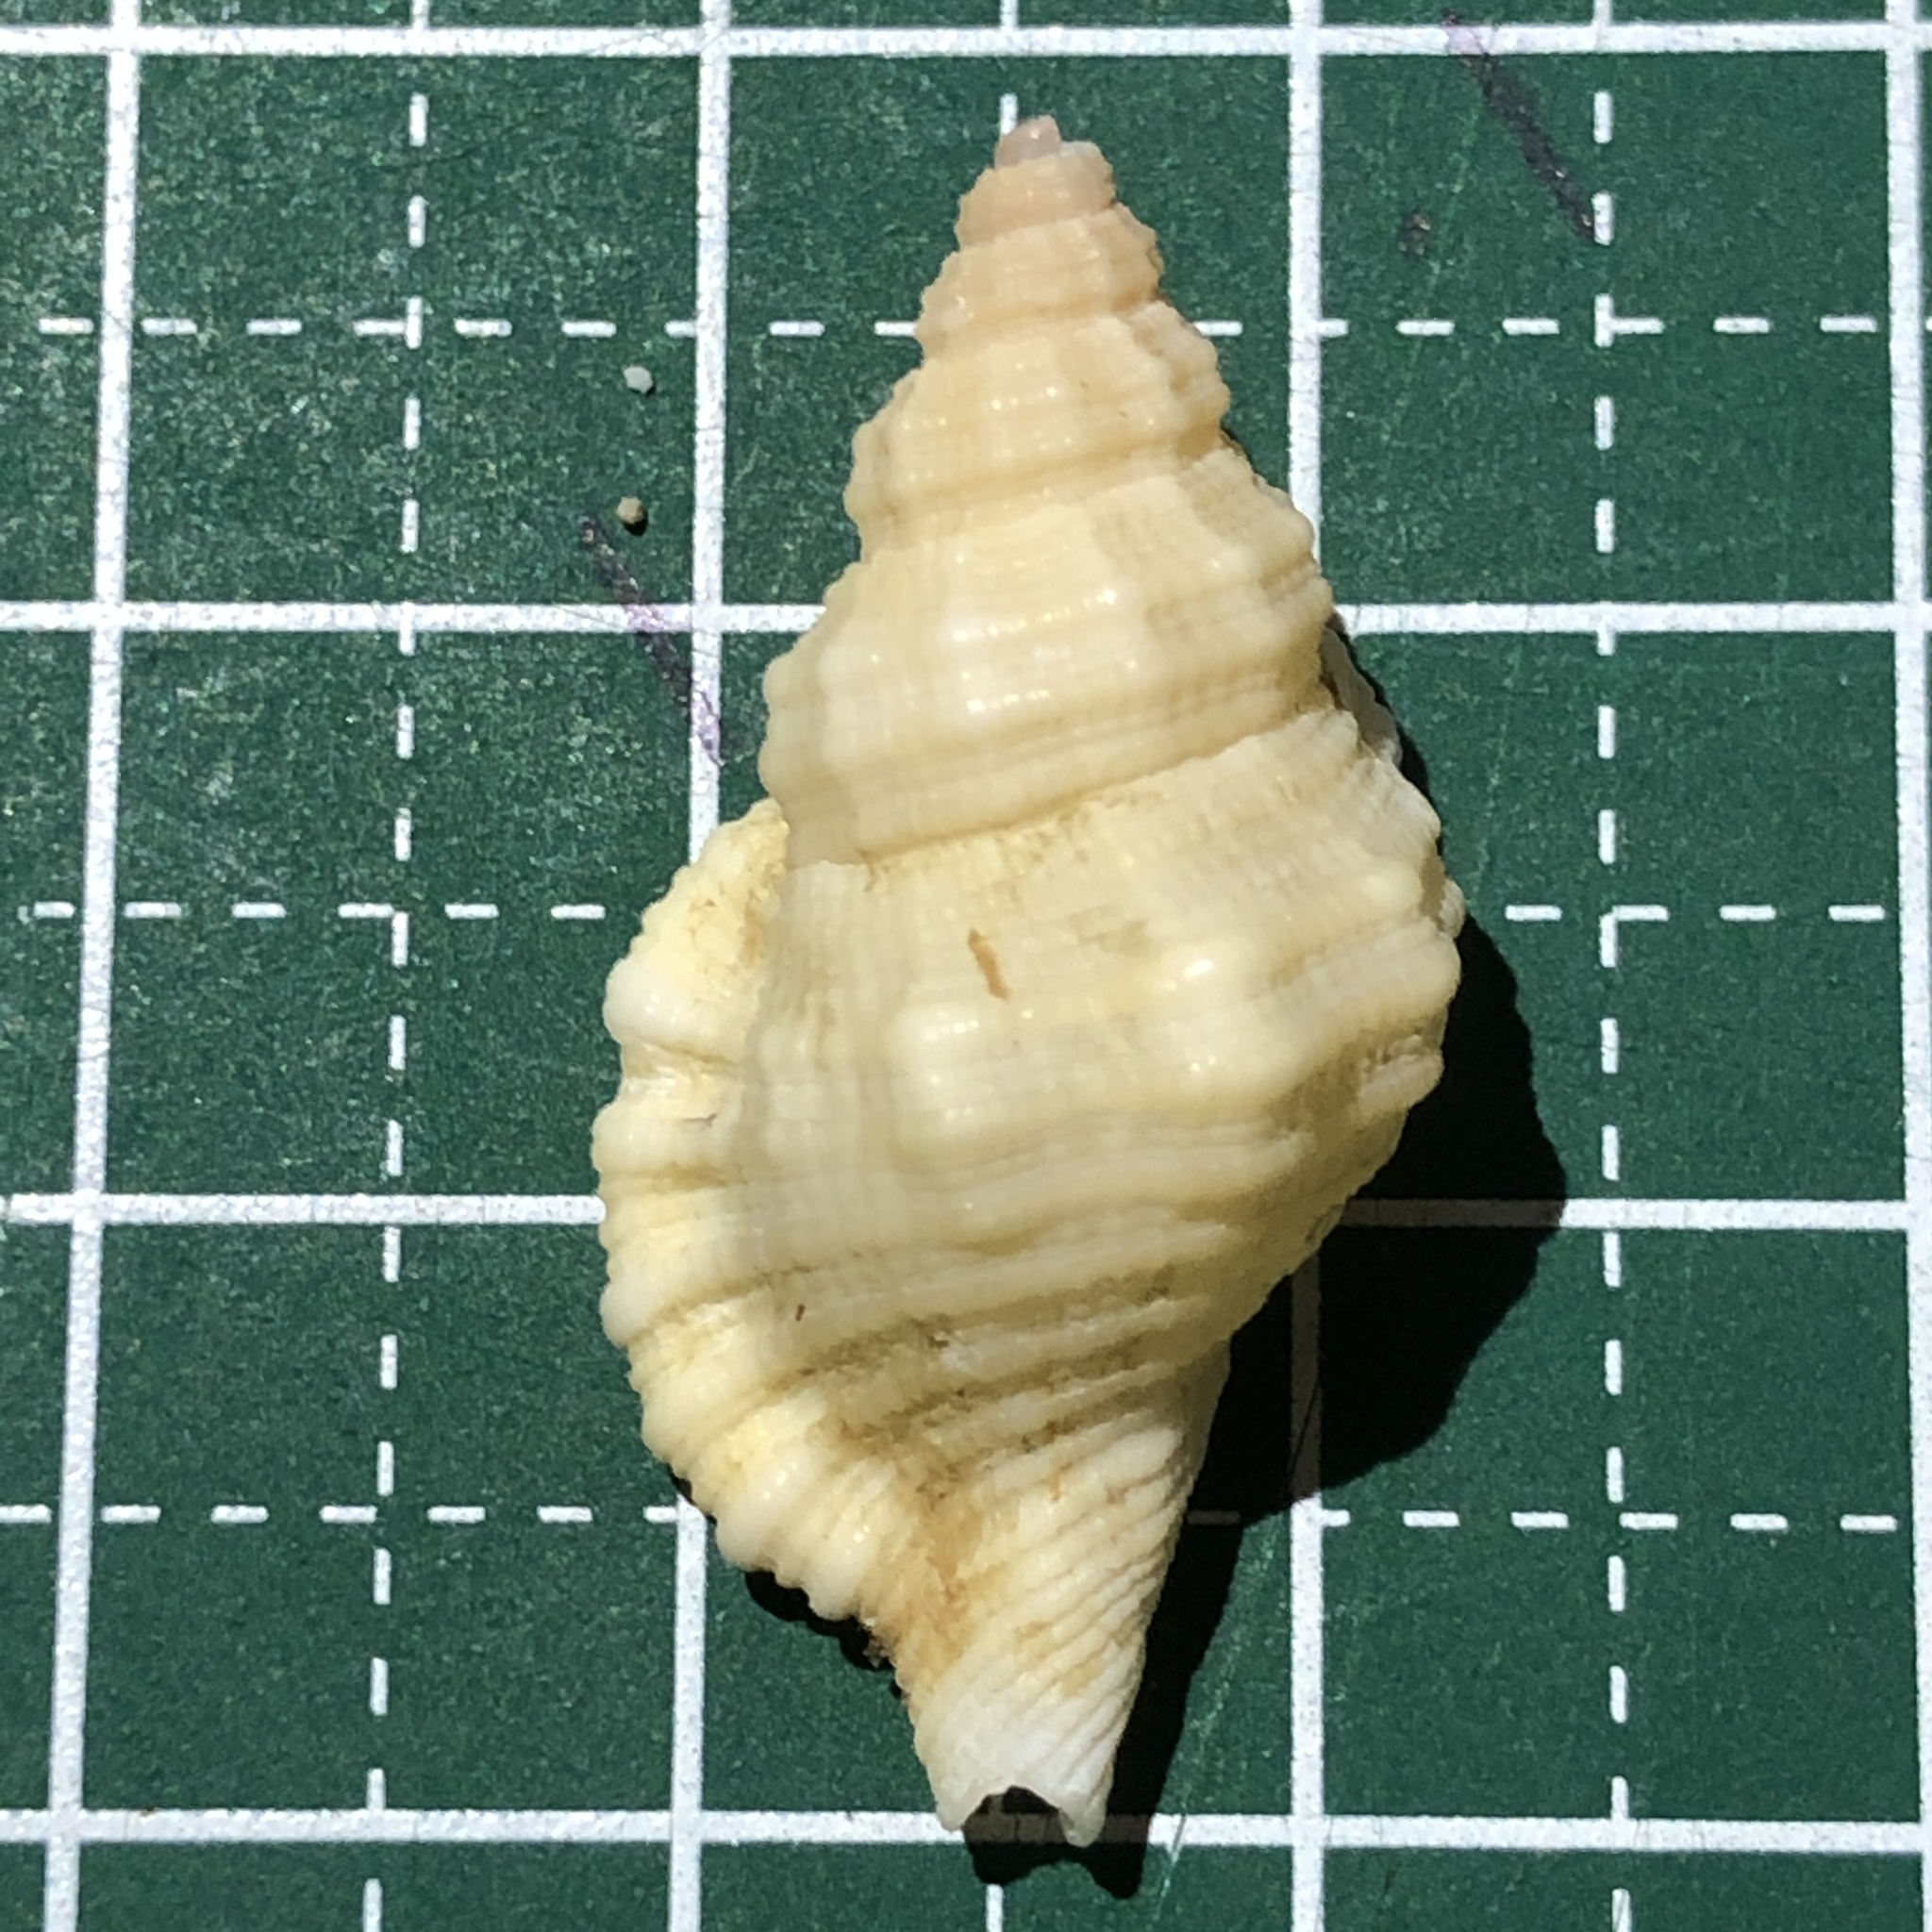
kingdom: Animalia
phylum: Mollusca
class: Gastropoda
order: Littorinimorpha
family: Cymatiidae
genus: Monoplex
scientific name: Monoplex mundus
